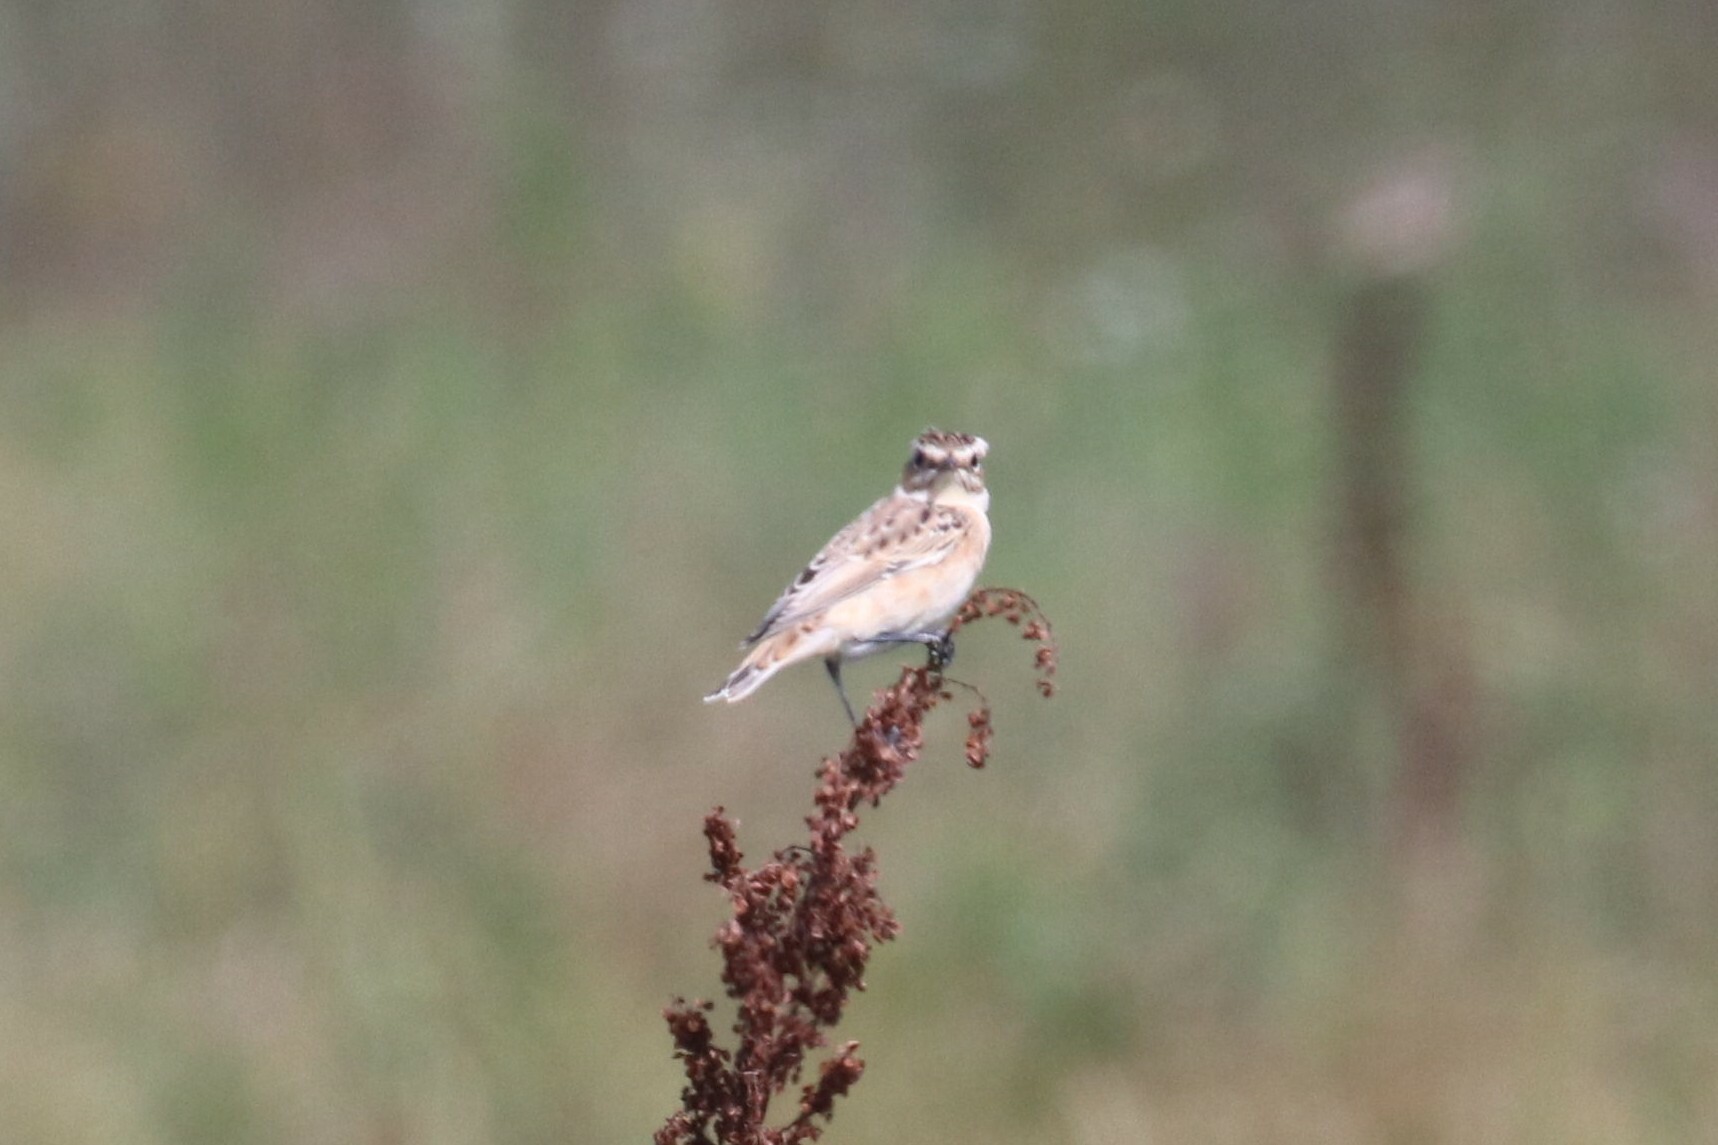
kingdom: Animalia
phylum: Chordata
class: Aves
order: Passeriformes
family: Muscicapidae
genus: Saxicola
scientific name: Saxicola rubetra
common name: Whinchat
